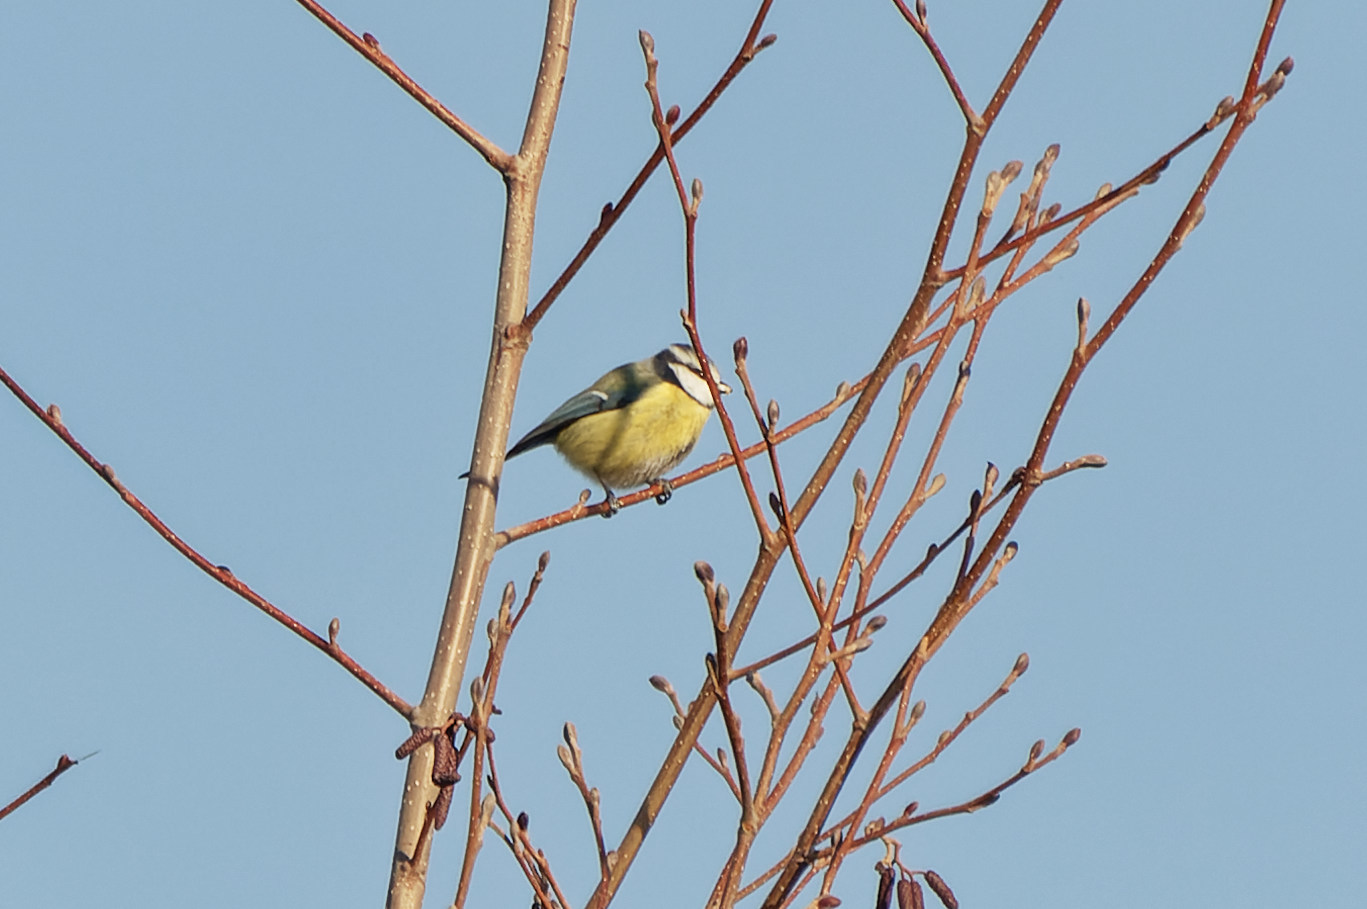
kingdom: Animalia
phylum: Chordata
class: Aves
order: Passeriformes
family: Paridae
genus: Cyanistes
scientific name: Cyanistes caeruleus
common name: Eurasian blue tit
